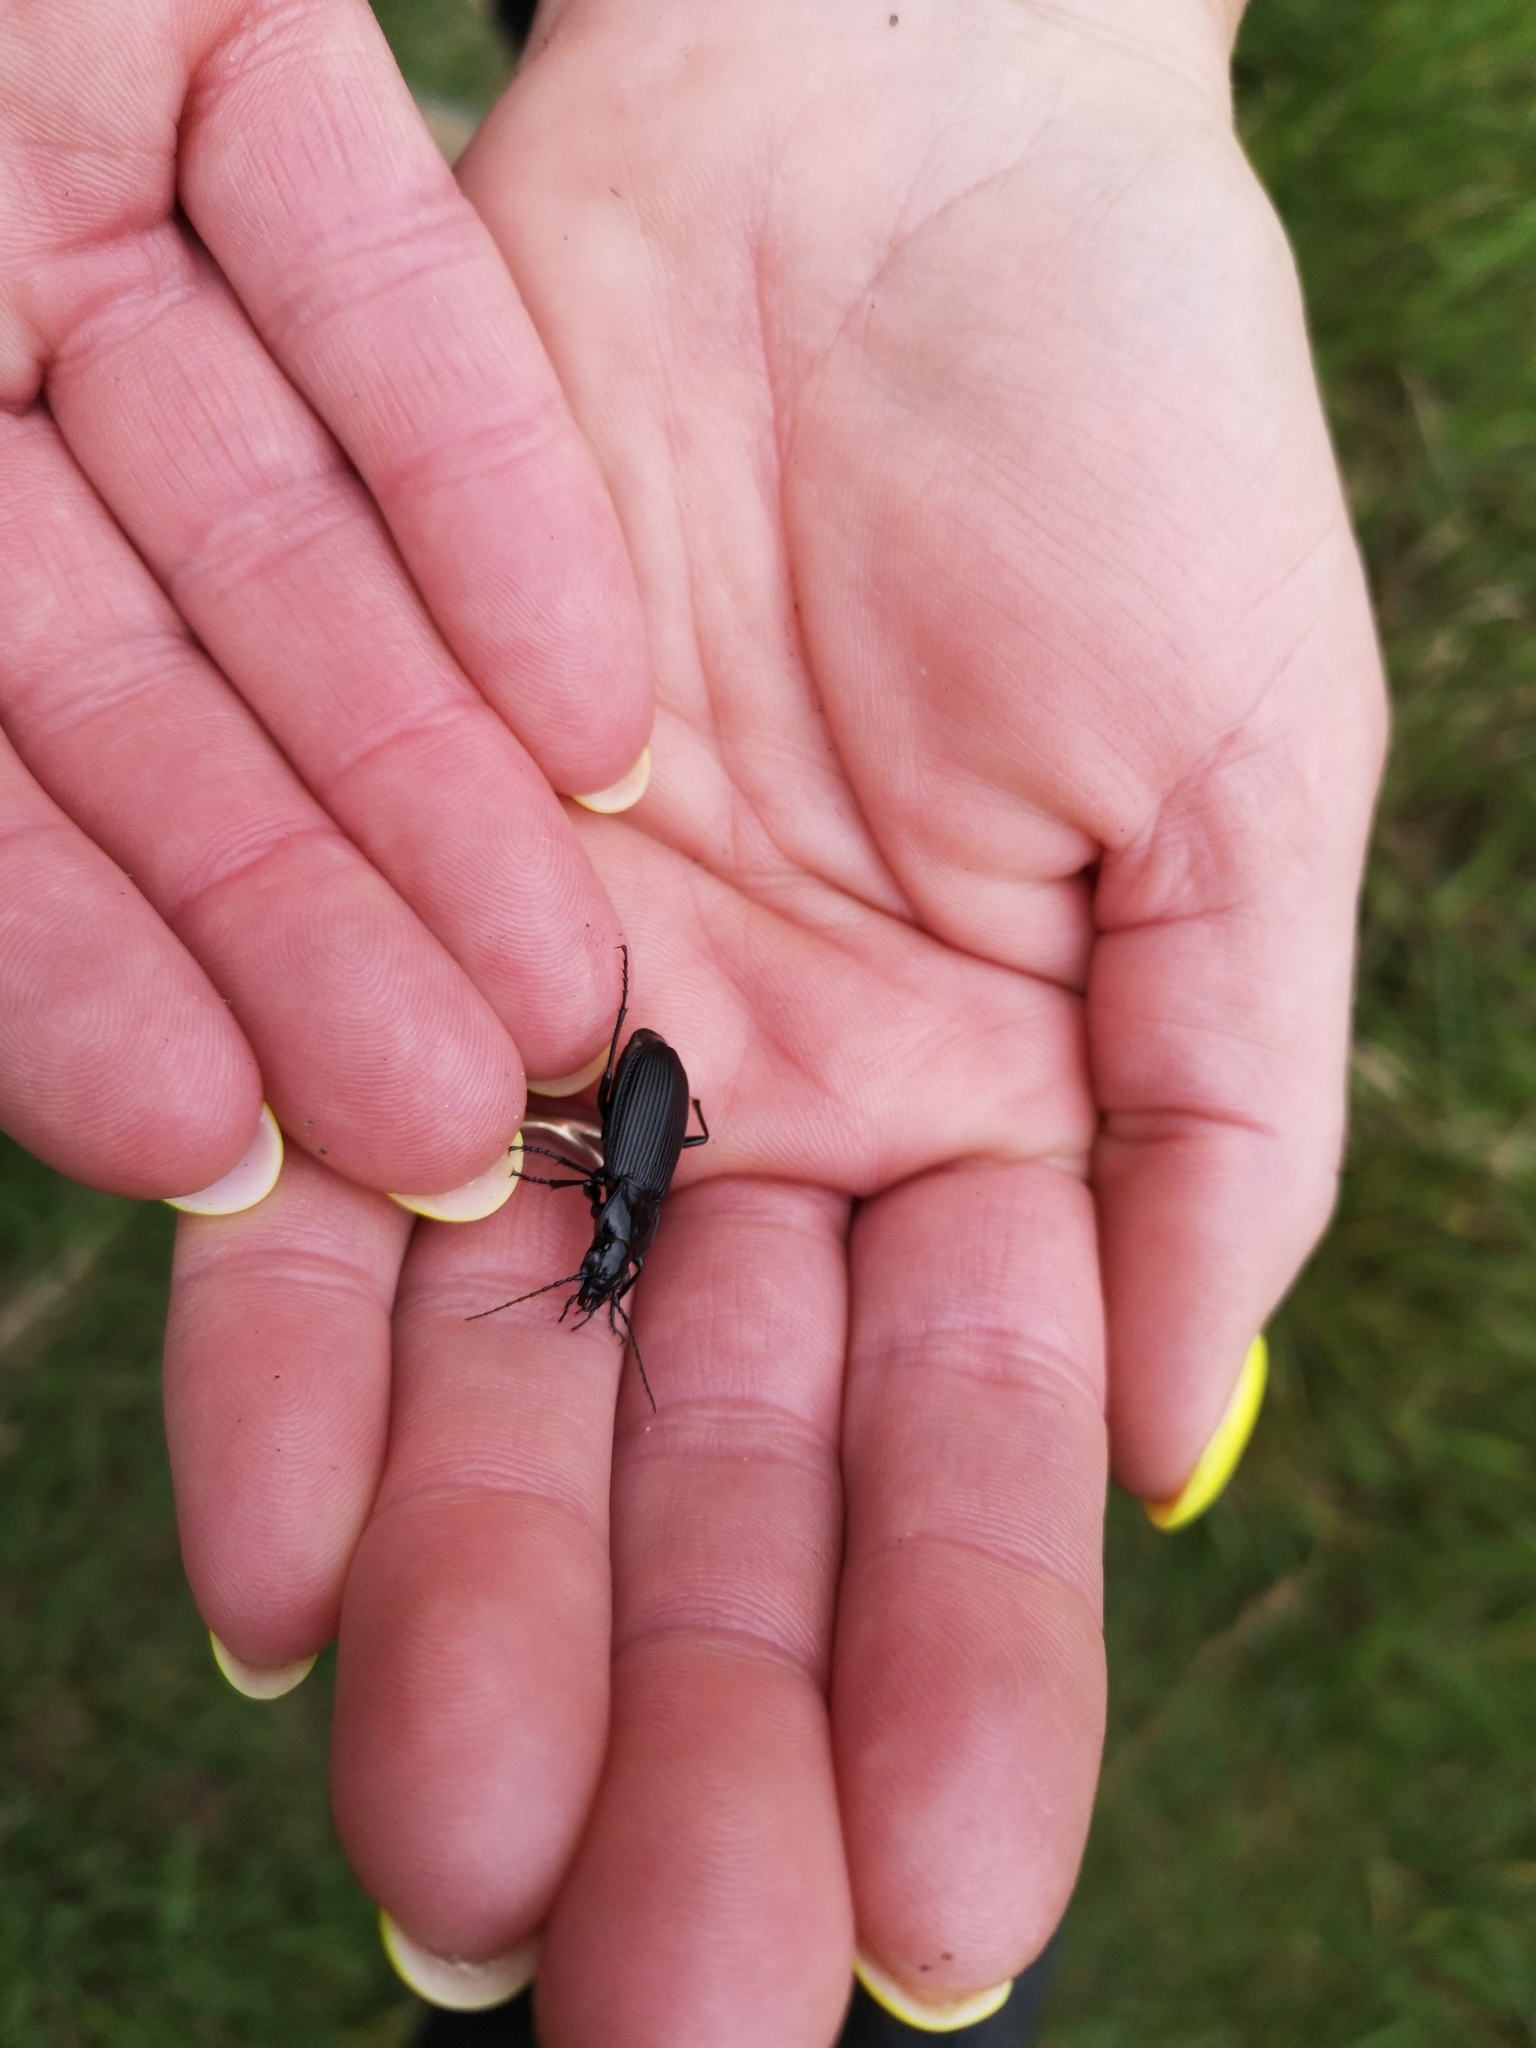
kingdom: Animalia
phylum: Arthropoda
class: Insecta
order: Coleoptera
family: Carabidae
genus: Pterostichus
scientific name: Pterostichus niger
